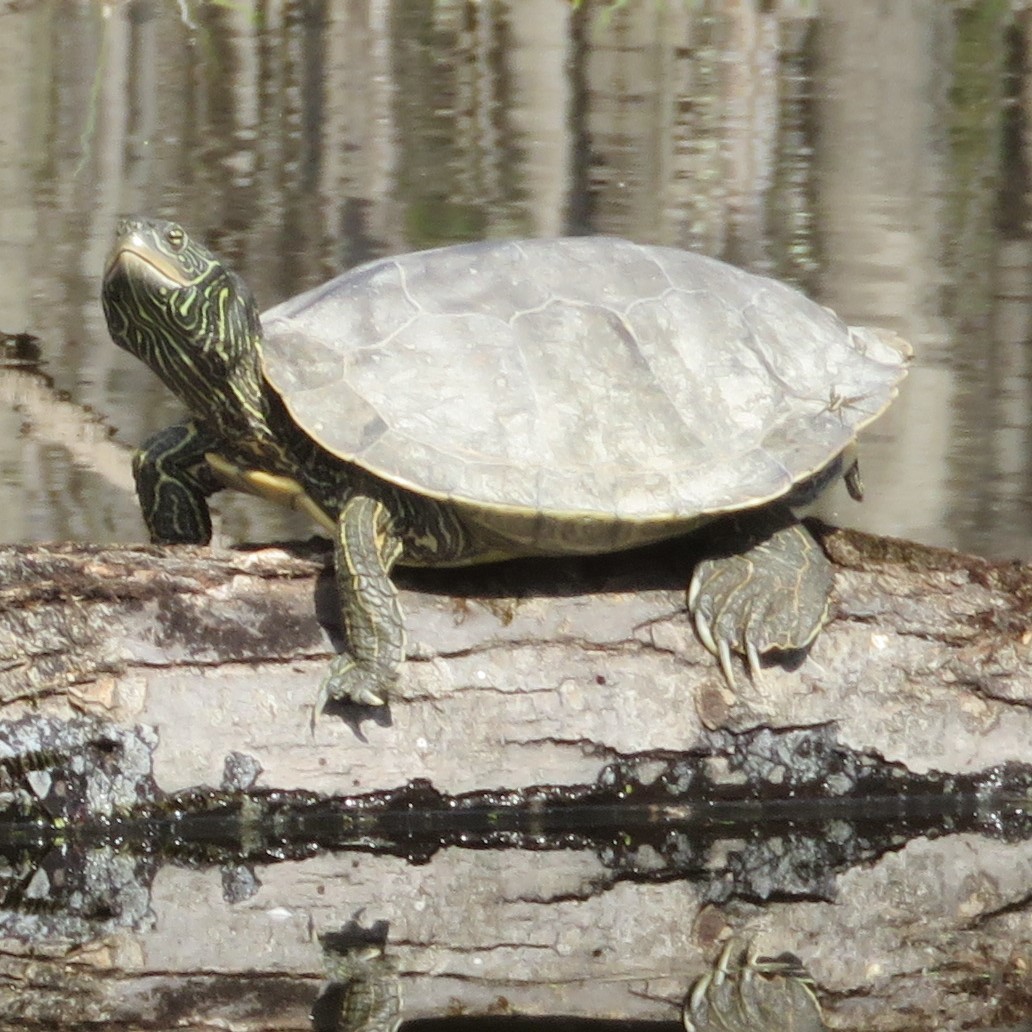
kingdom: Animalia
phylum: Chordata
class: Testudines
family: Emydidae
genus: Graptemys
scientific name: Graptemys geographica
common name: Common map turtle
